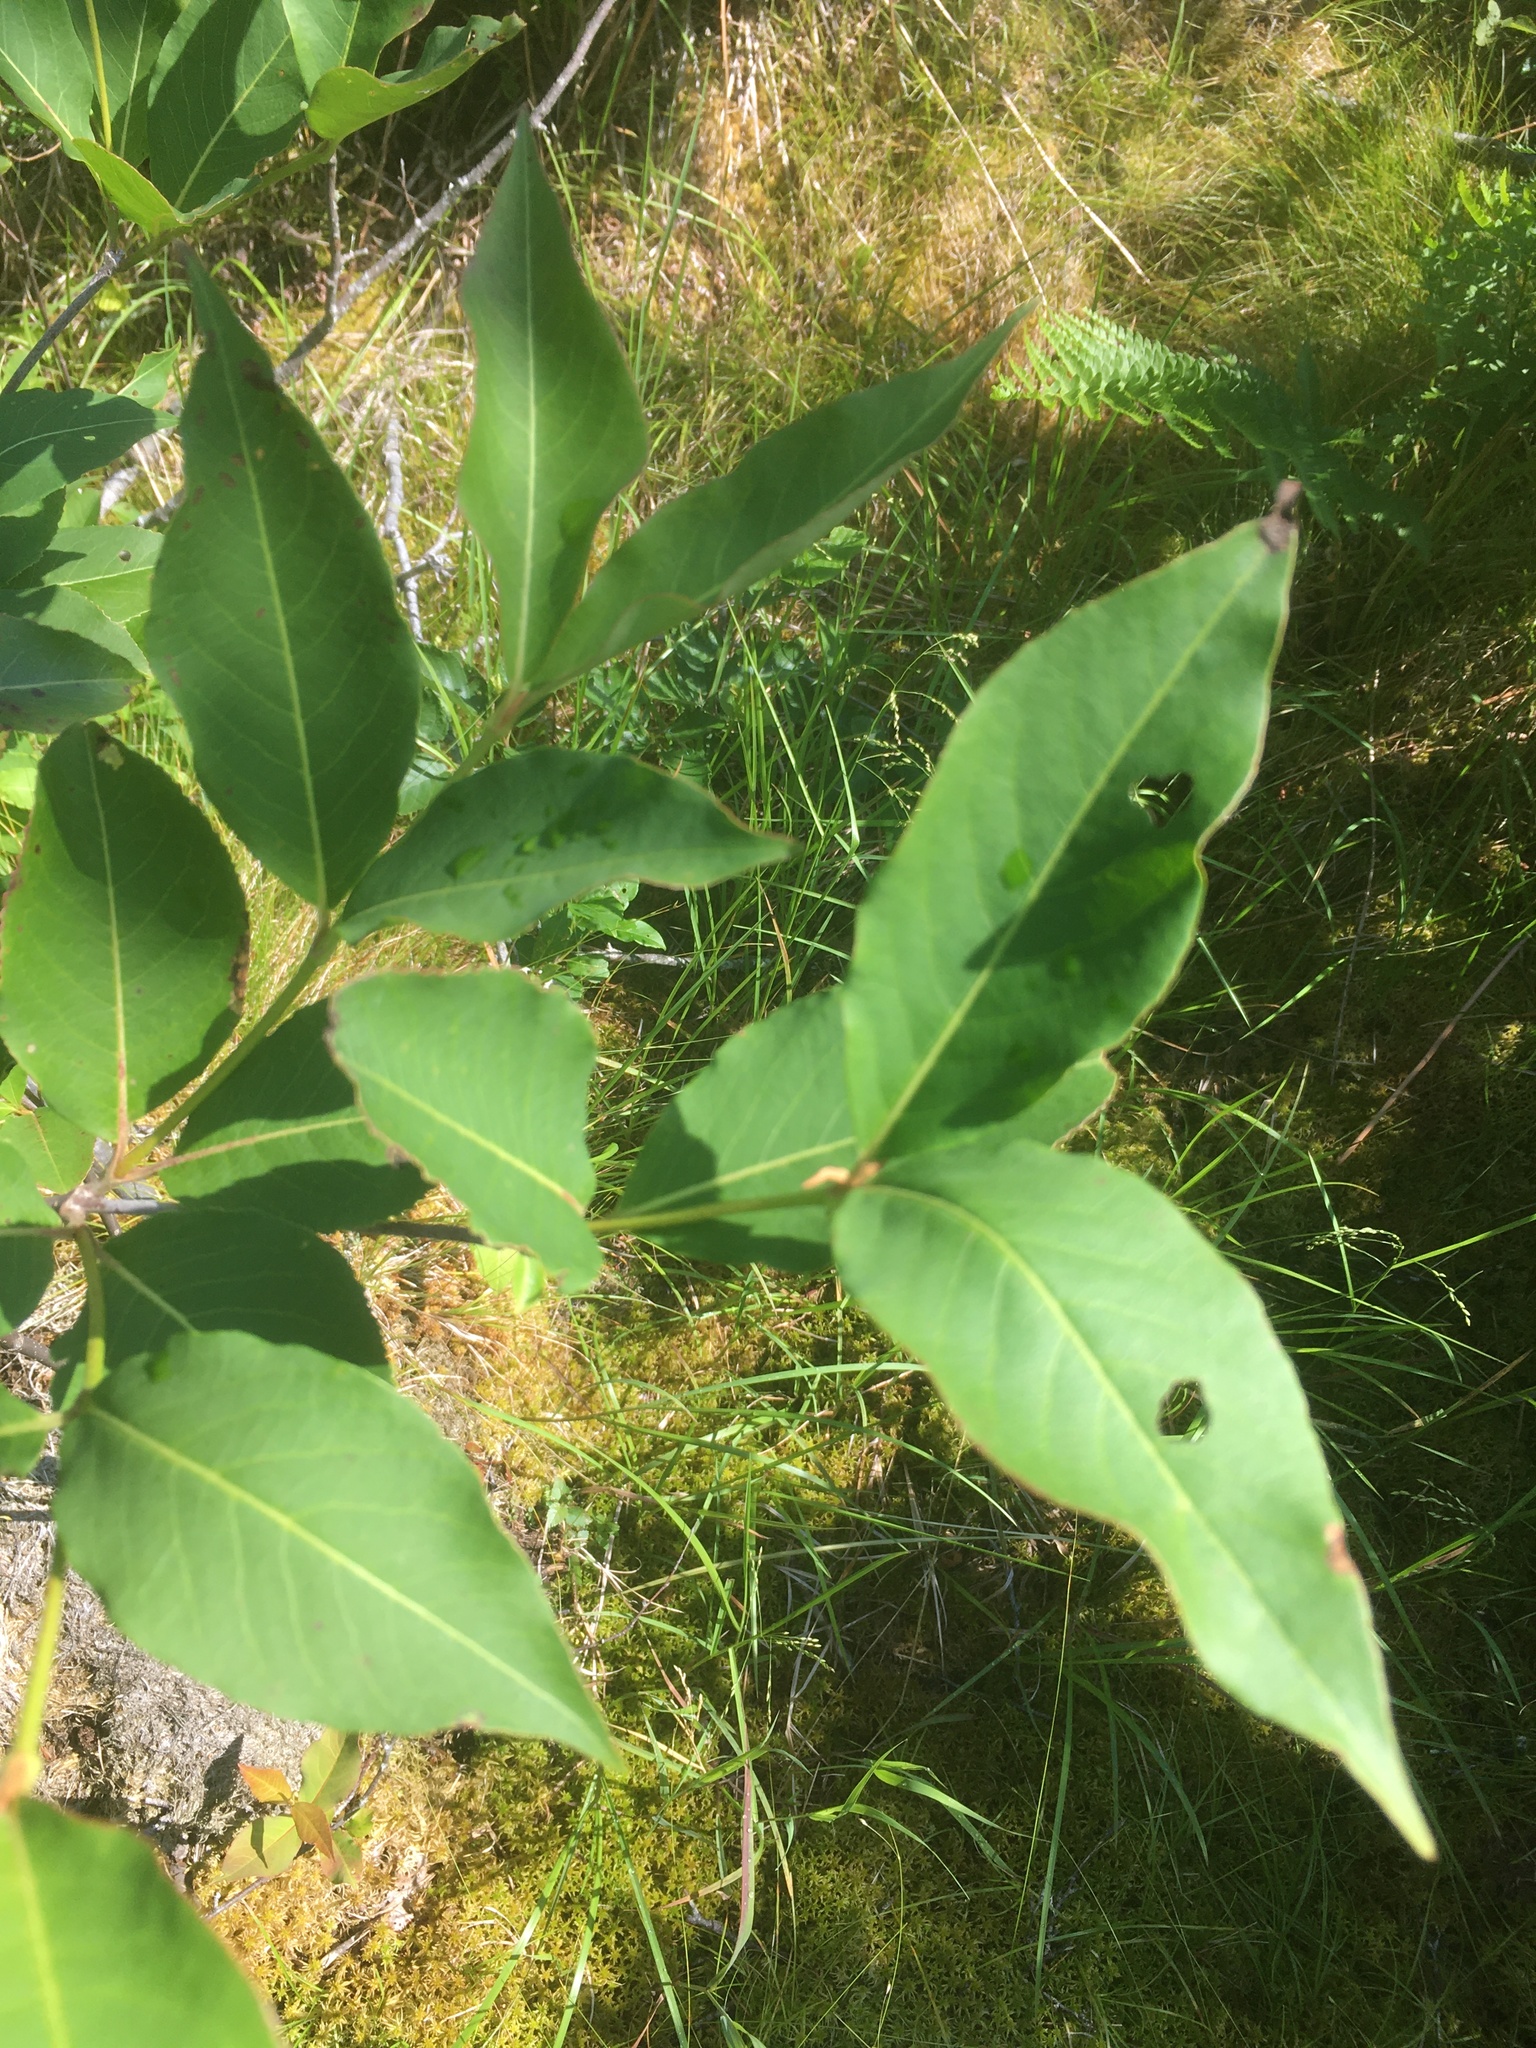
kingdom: Plantae
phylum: Tracheophyta
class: Magnoliopsida
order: Dipsacales
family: Viburnaceae
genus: Viburnum
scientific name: Viburnum cassinoides
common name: Swamp haw
